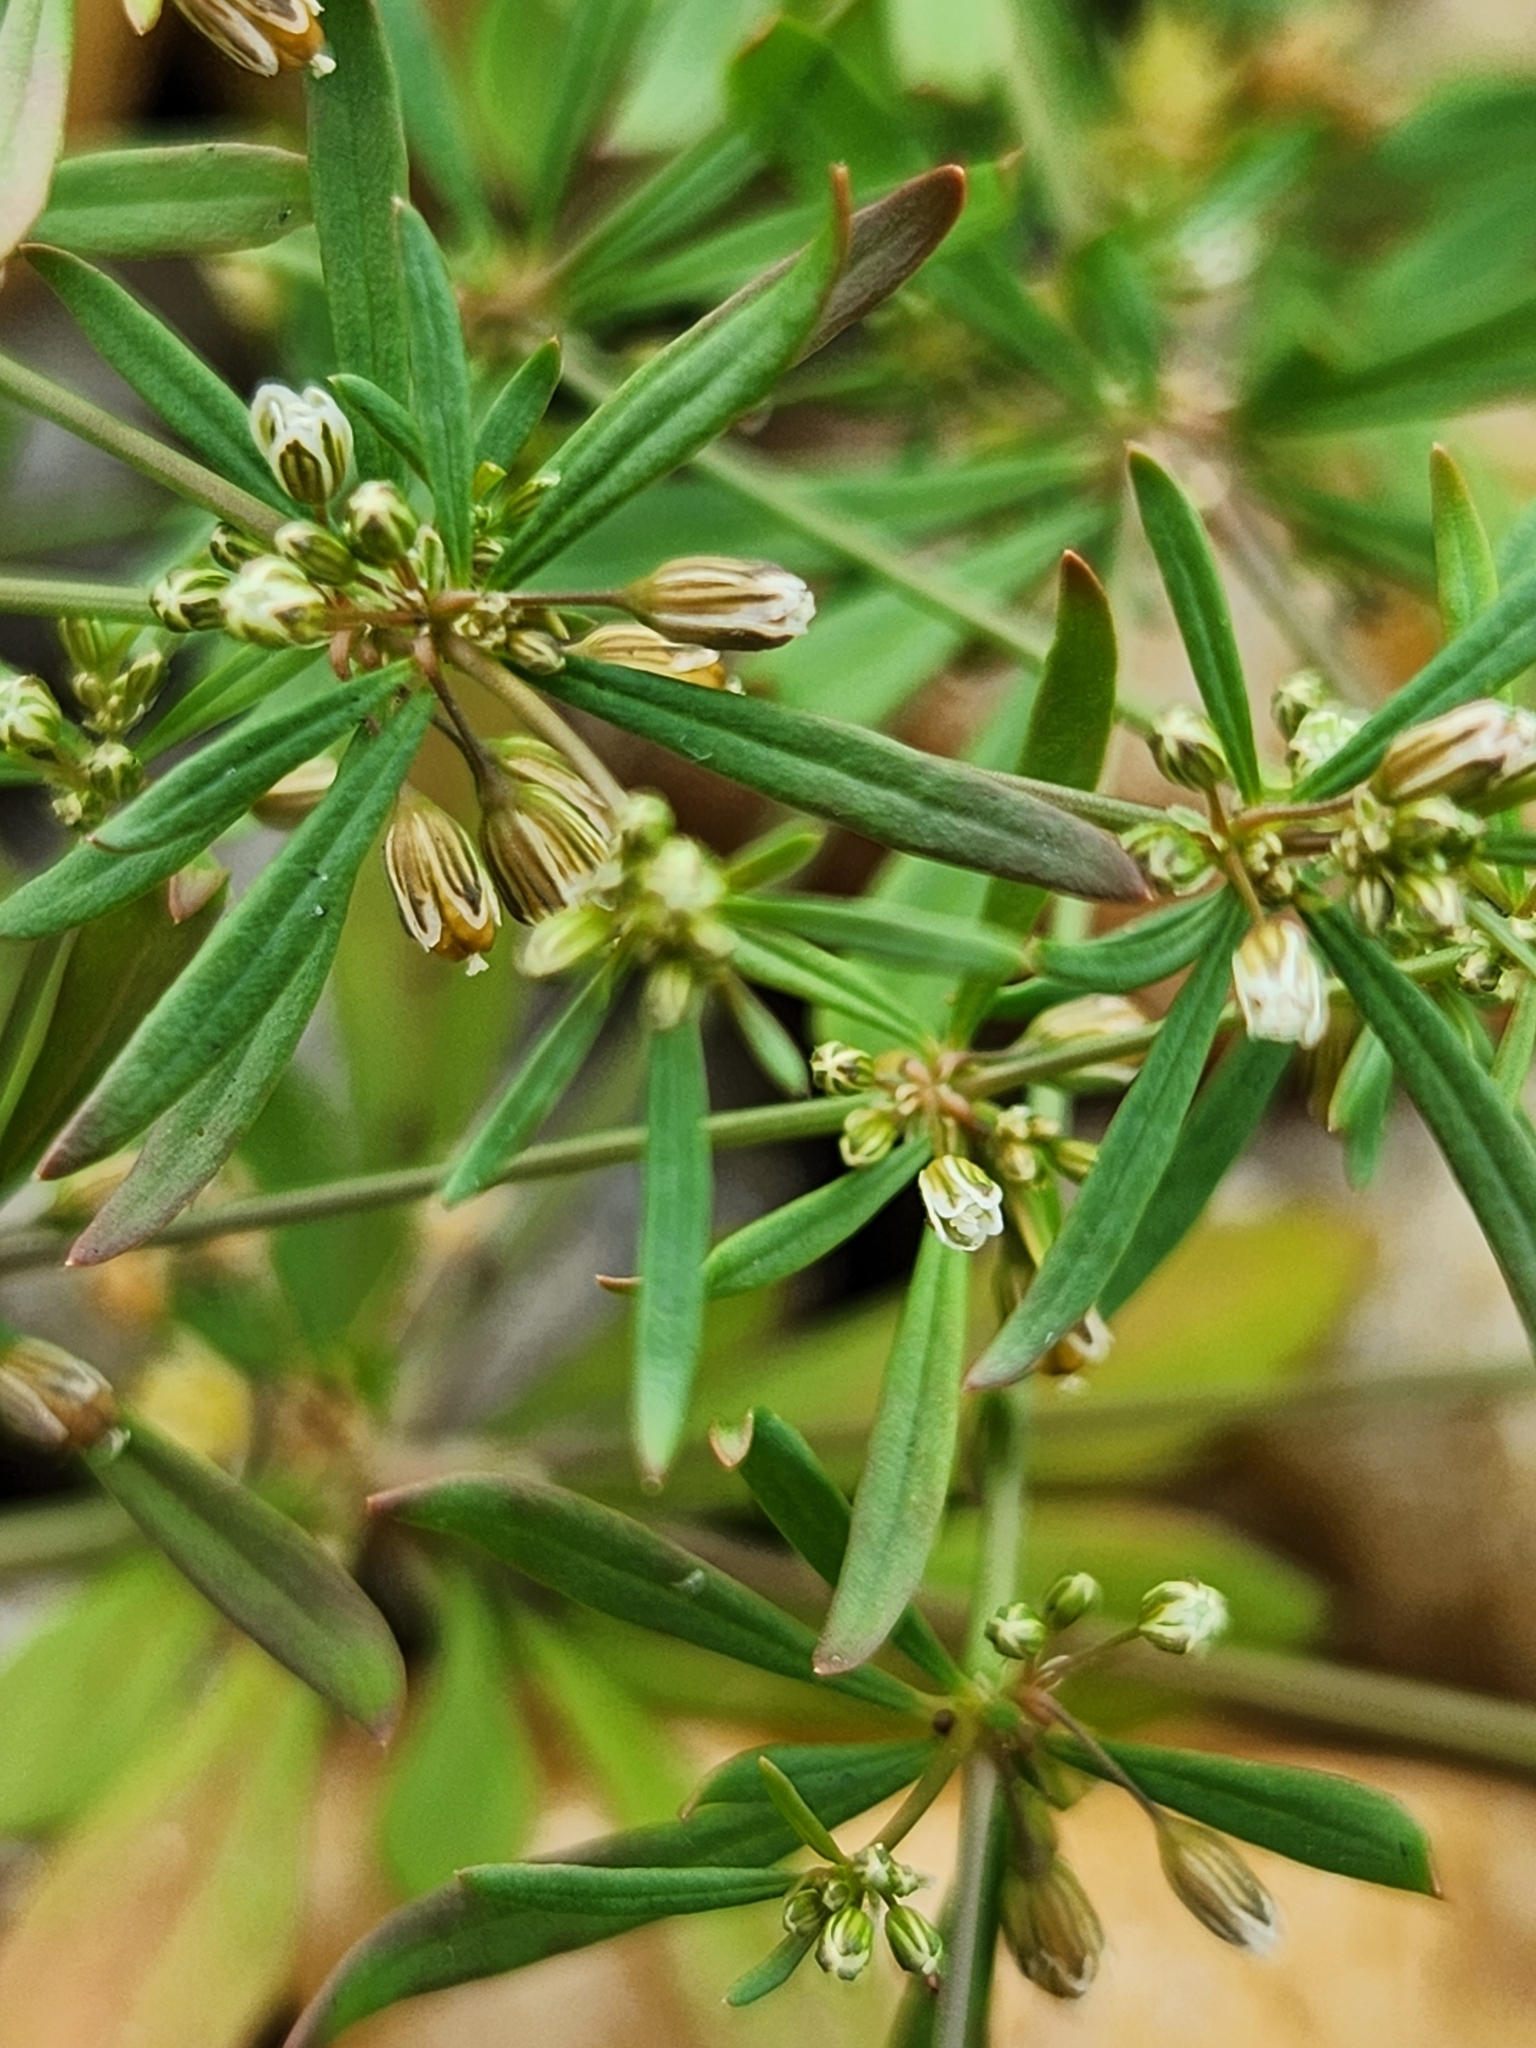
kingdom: Plantae
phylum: Tracheophyta
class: Magnoliopsida
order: Caryophyllales
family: Molluginaceae
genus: Mollugo
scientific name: Mollugo verticillata
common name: Green carpetweed
